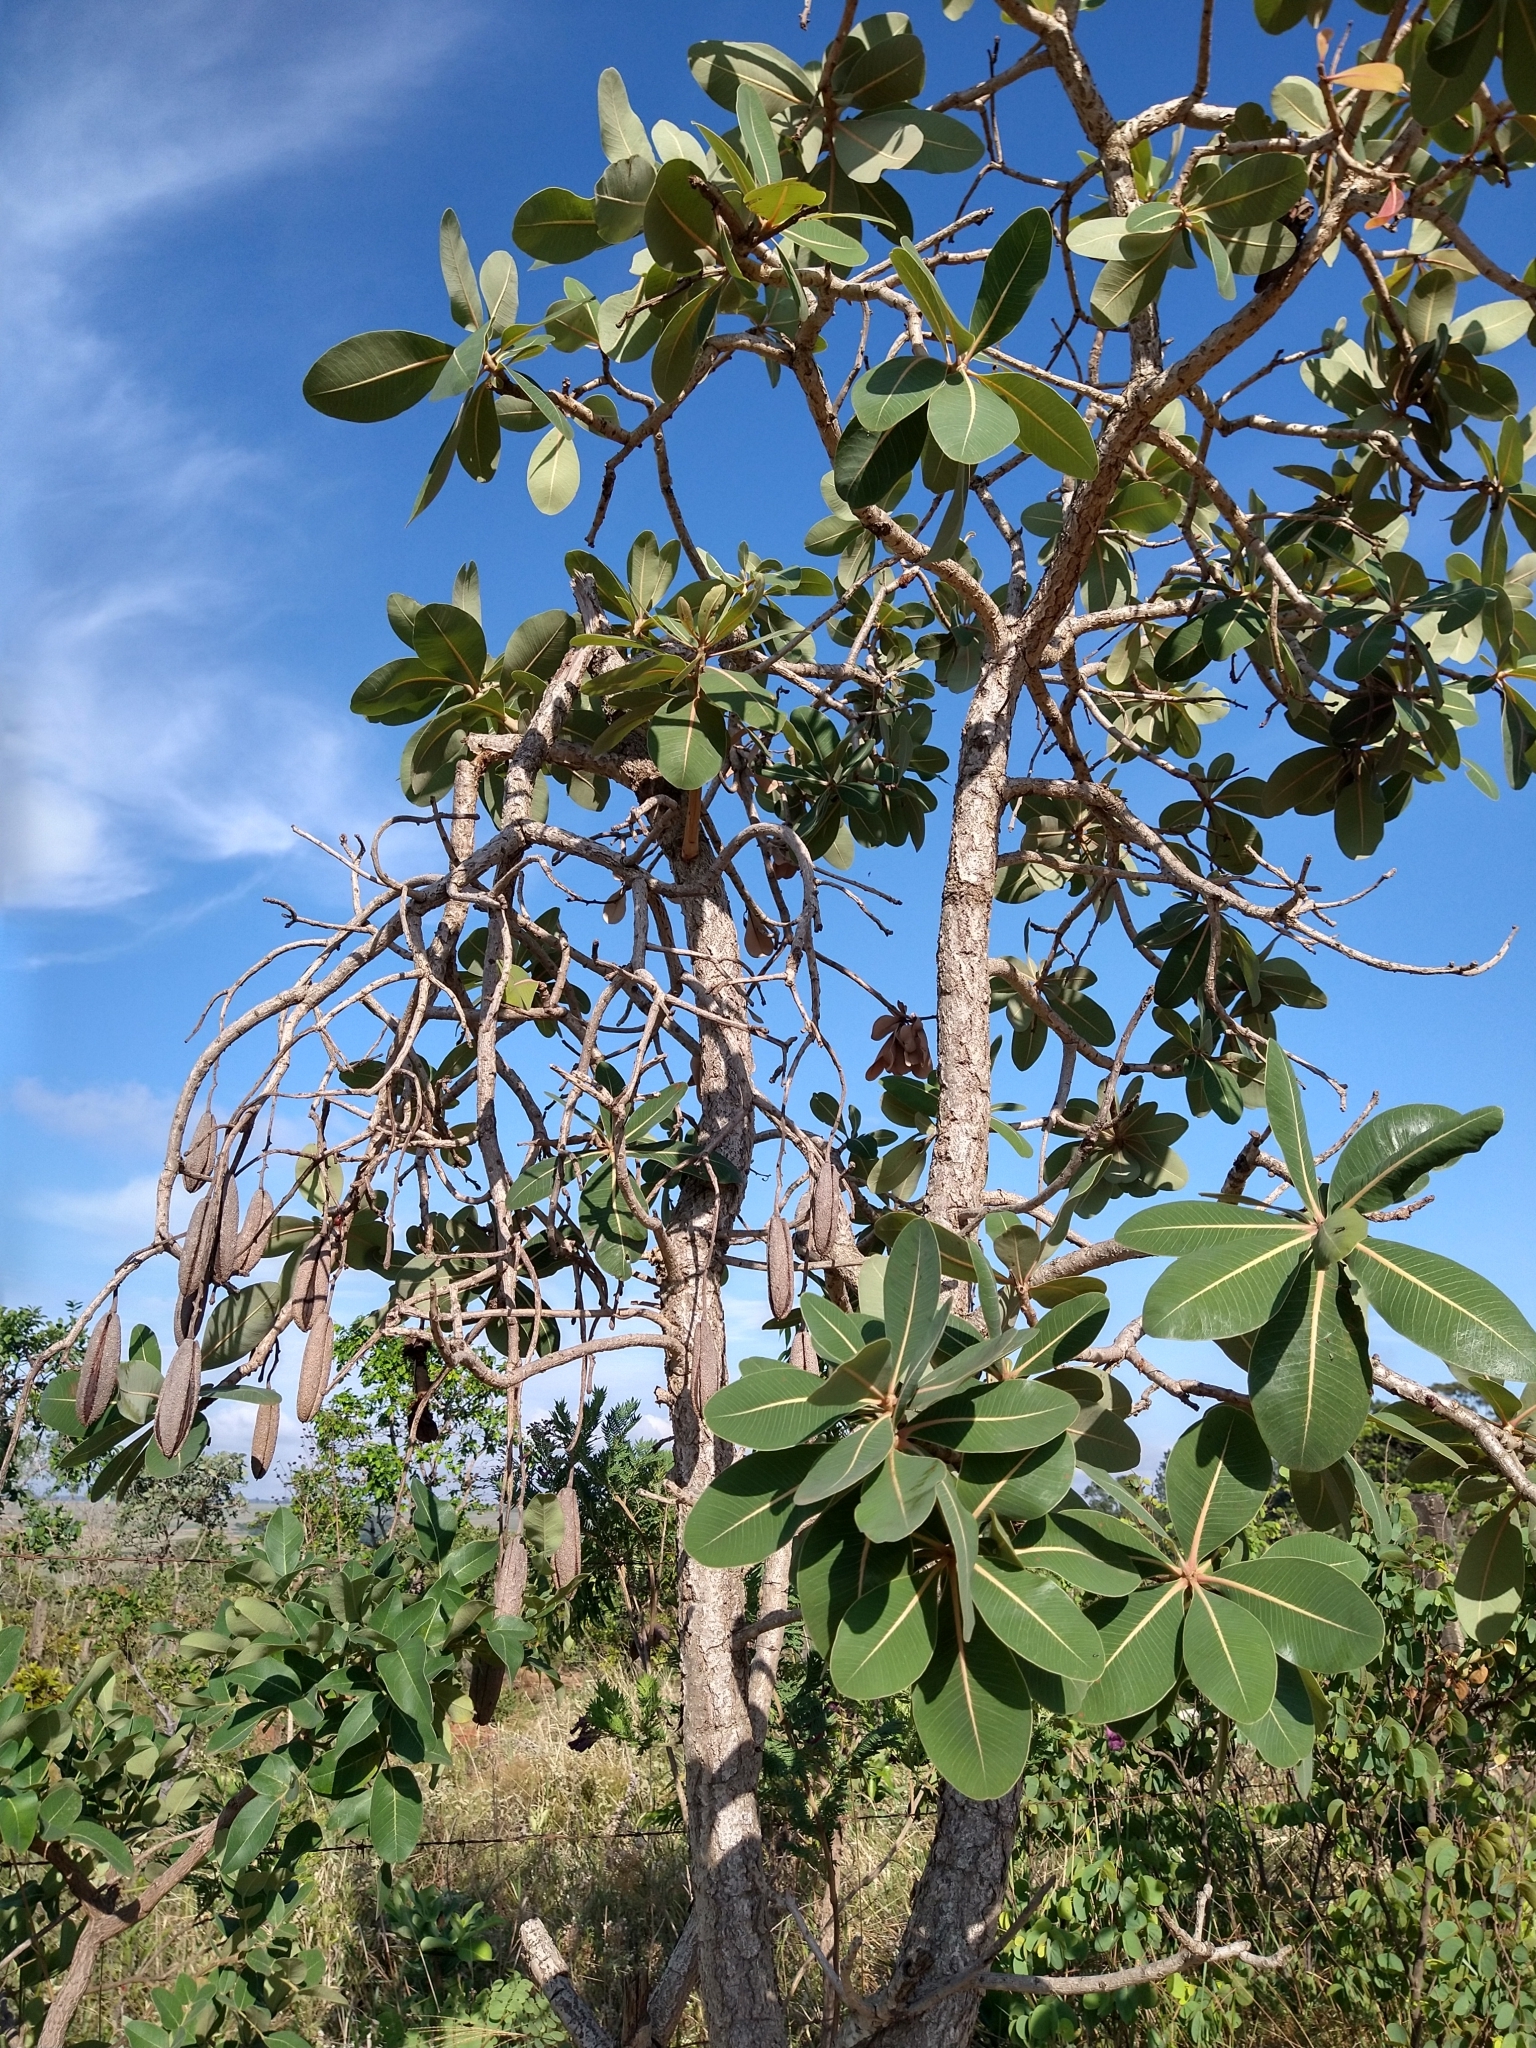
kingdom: Plantae
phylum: Tracheophyta
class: Magnoliopsida
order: Malpighiales
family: Calophyllaceae
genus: Kielmeyera
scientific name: Kielmeyera coriacea
